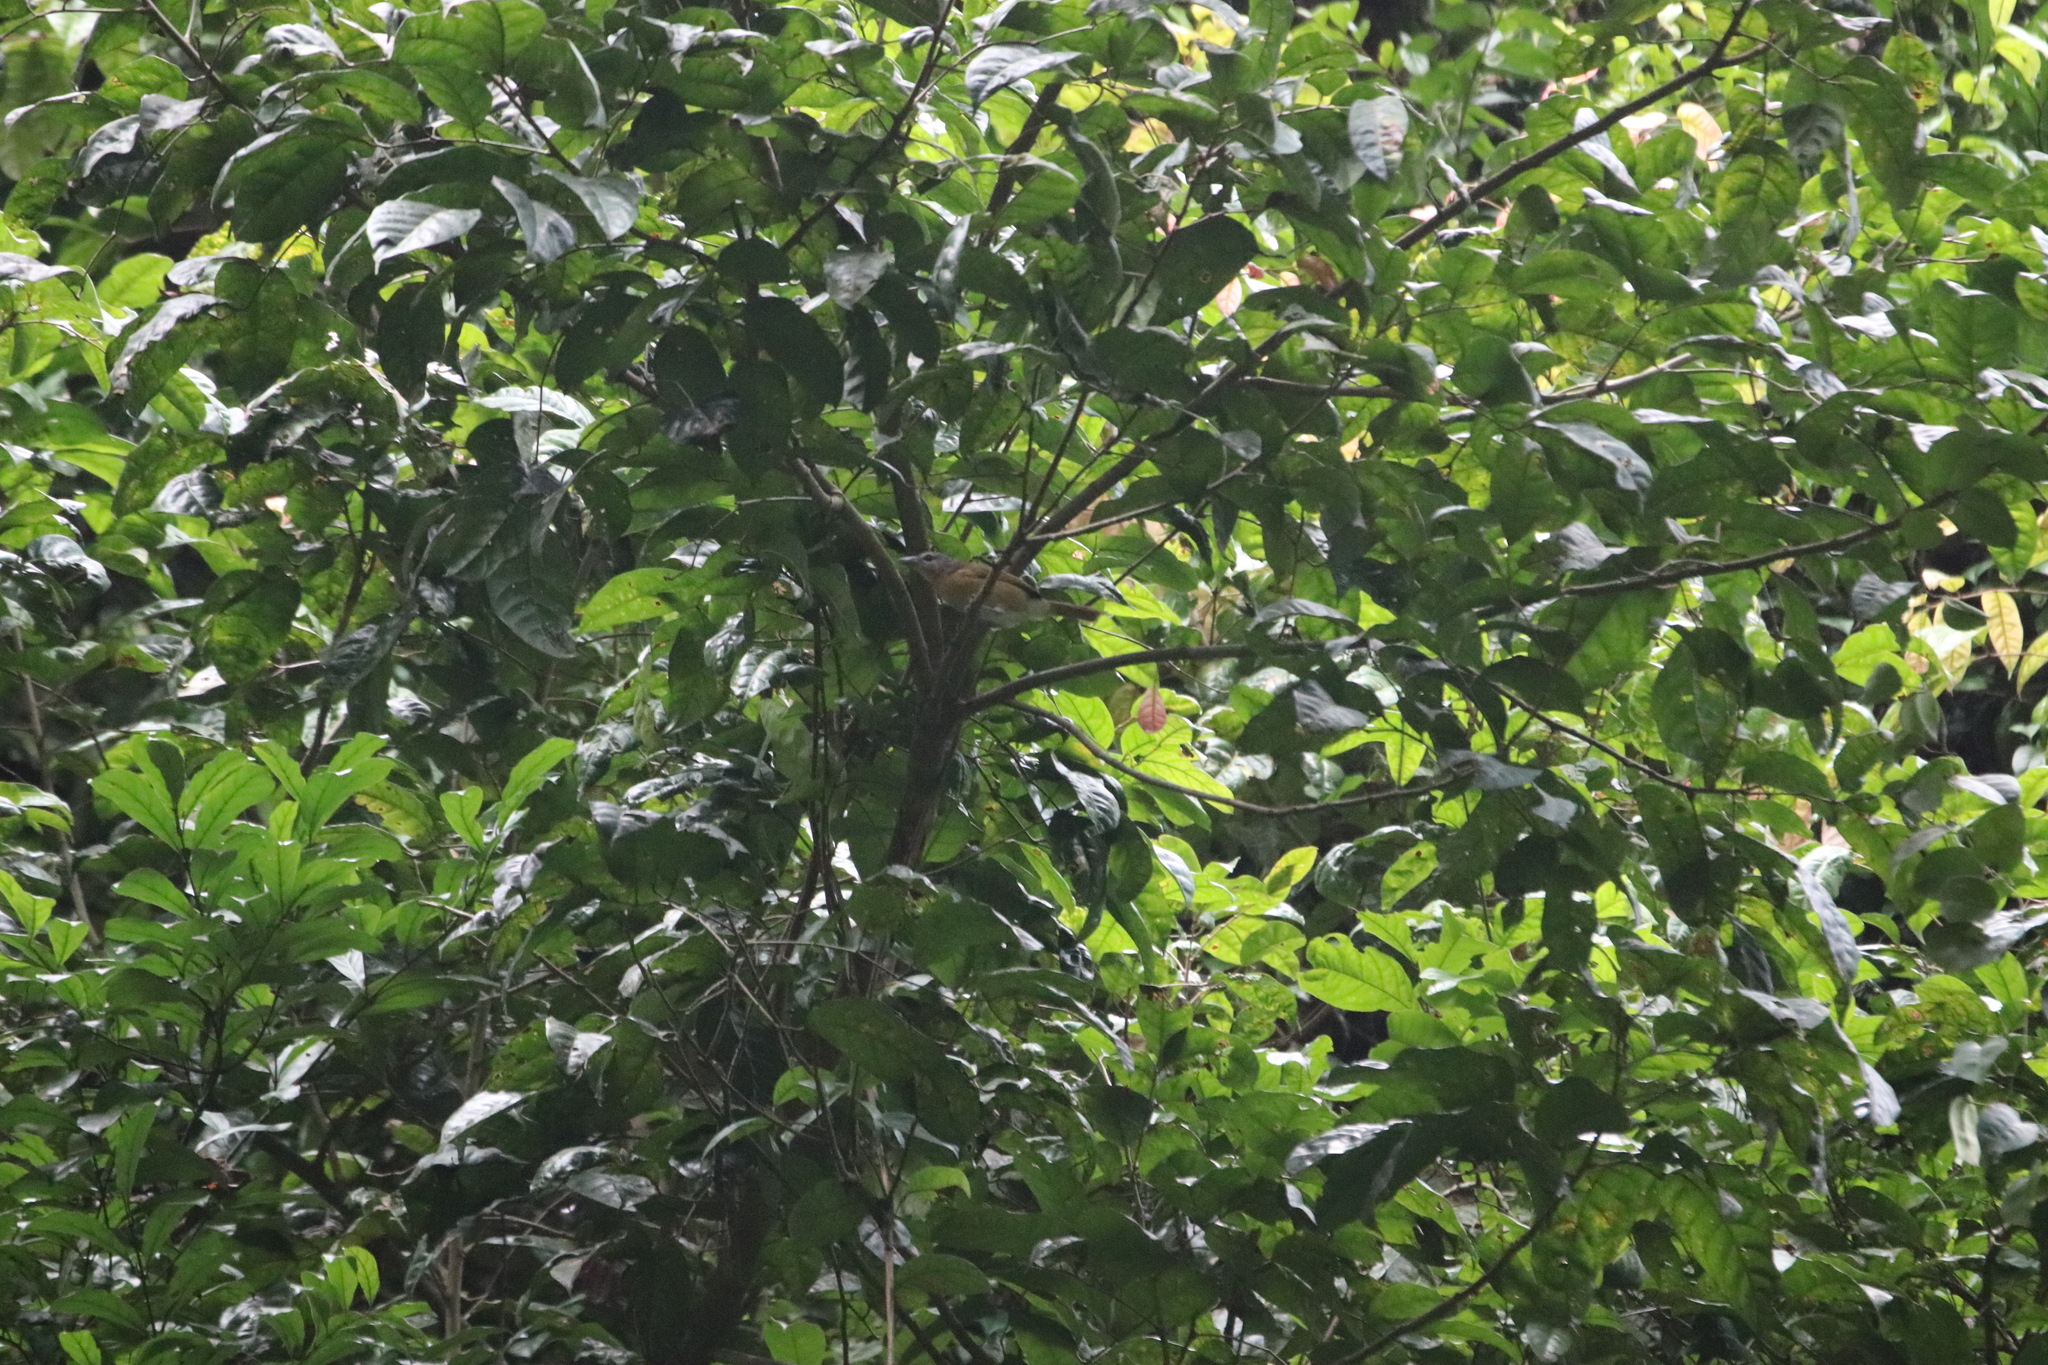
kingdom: Animalia
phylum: Chordata
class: Aves
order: Passeriformes
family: Malaconotidae
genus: Dryoscopus
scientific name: Dryoscopus sabini
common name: Sabine's puffback
